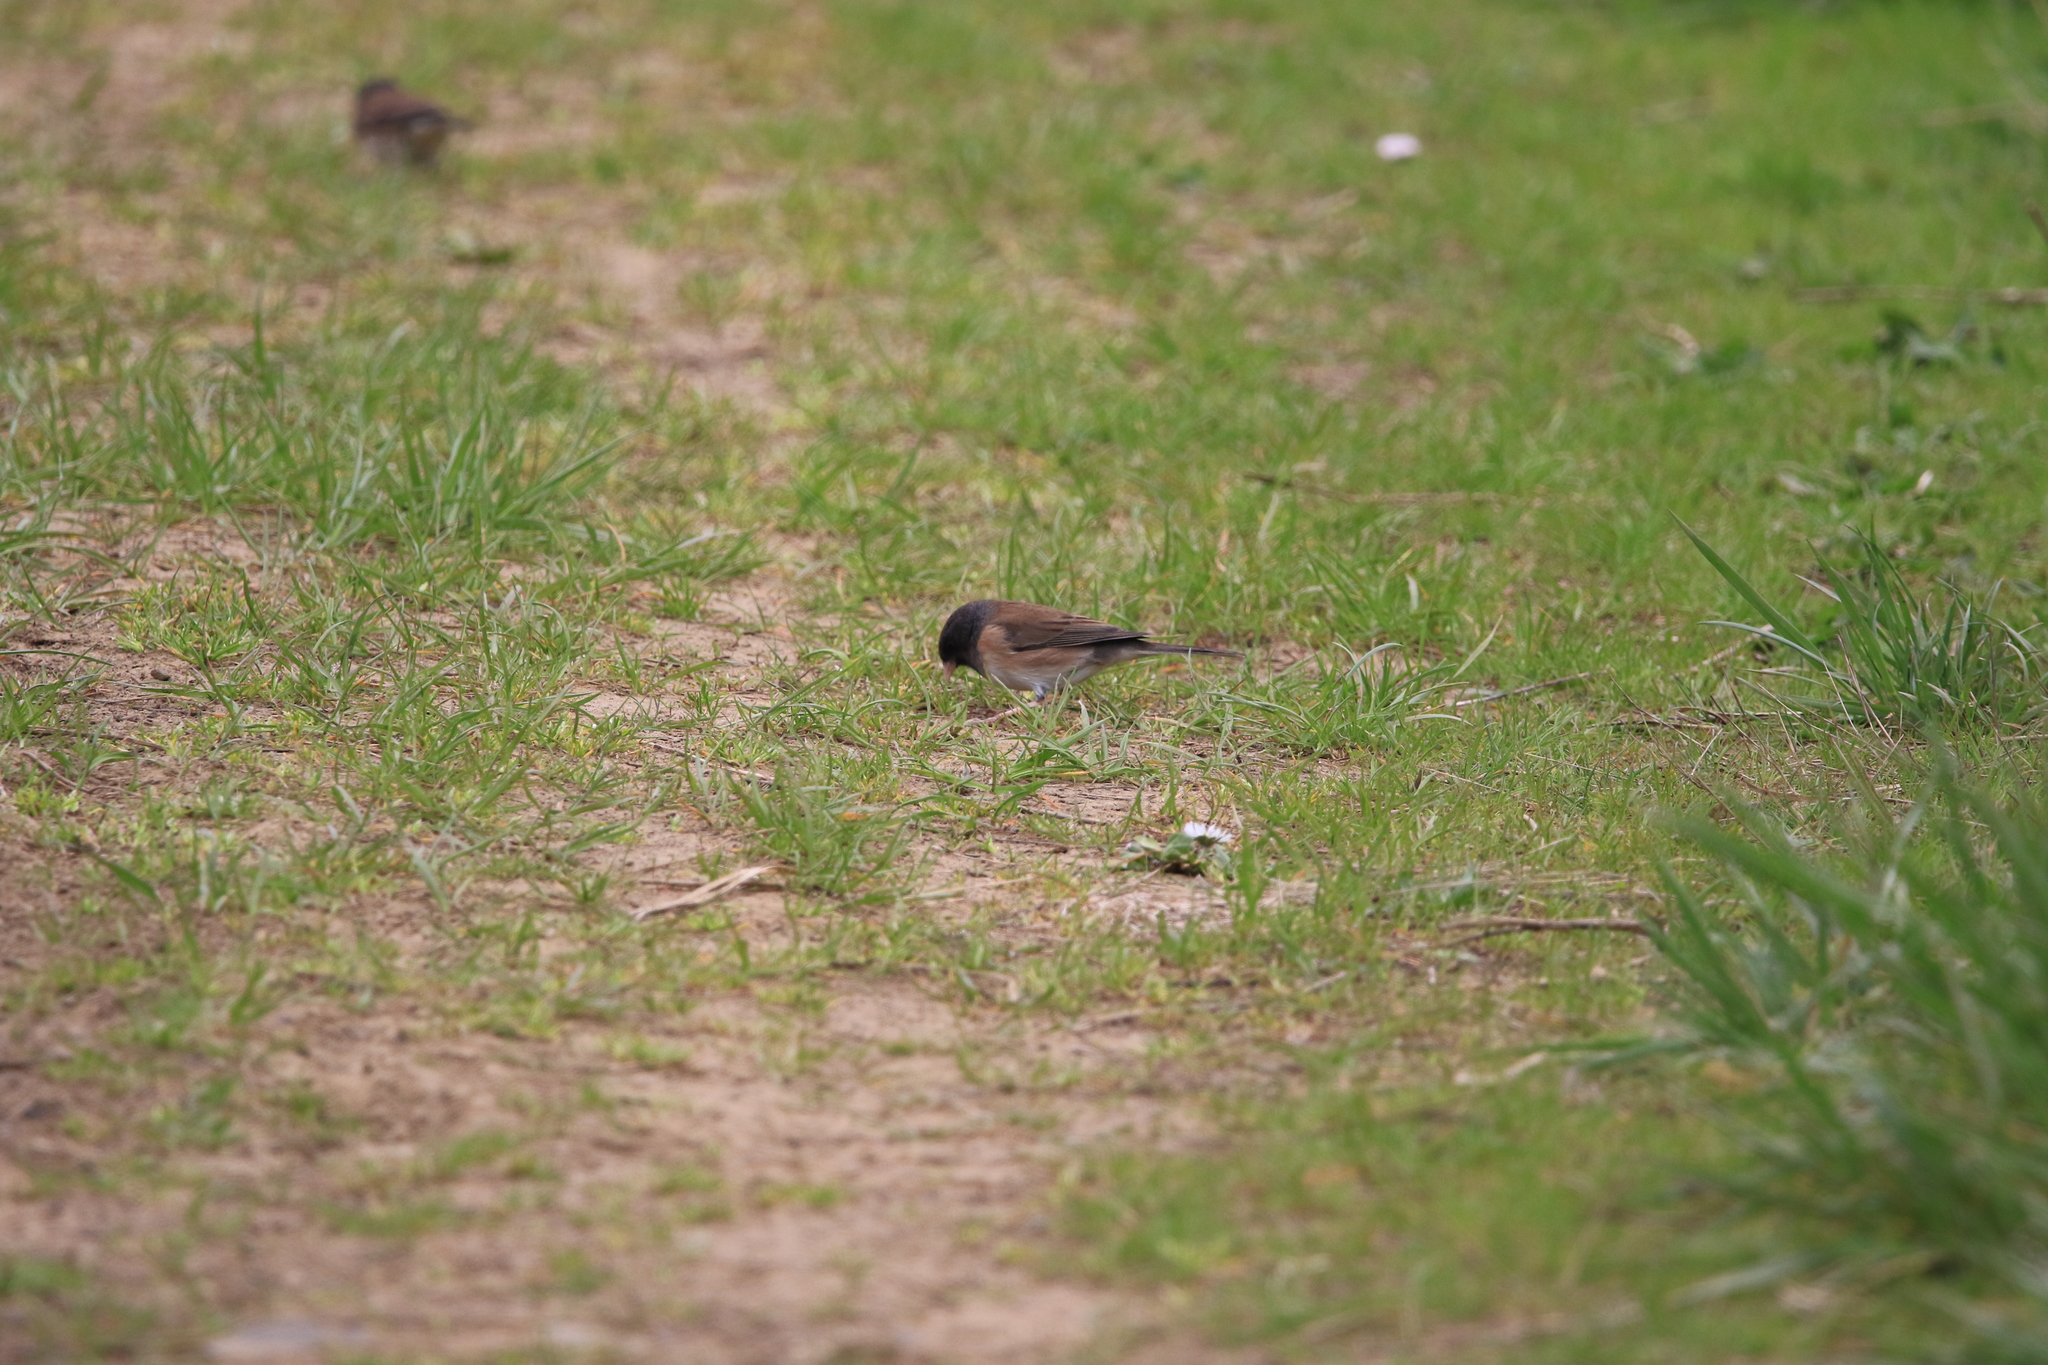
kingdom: Animalia
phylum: Chordata
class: Aves
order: Passeriformes
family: Passerellidae
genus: Junco
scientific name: Junco hyemalis
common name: Dark-eyed junco
